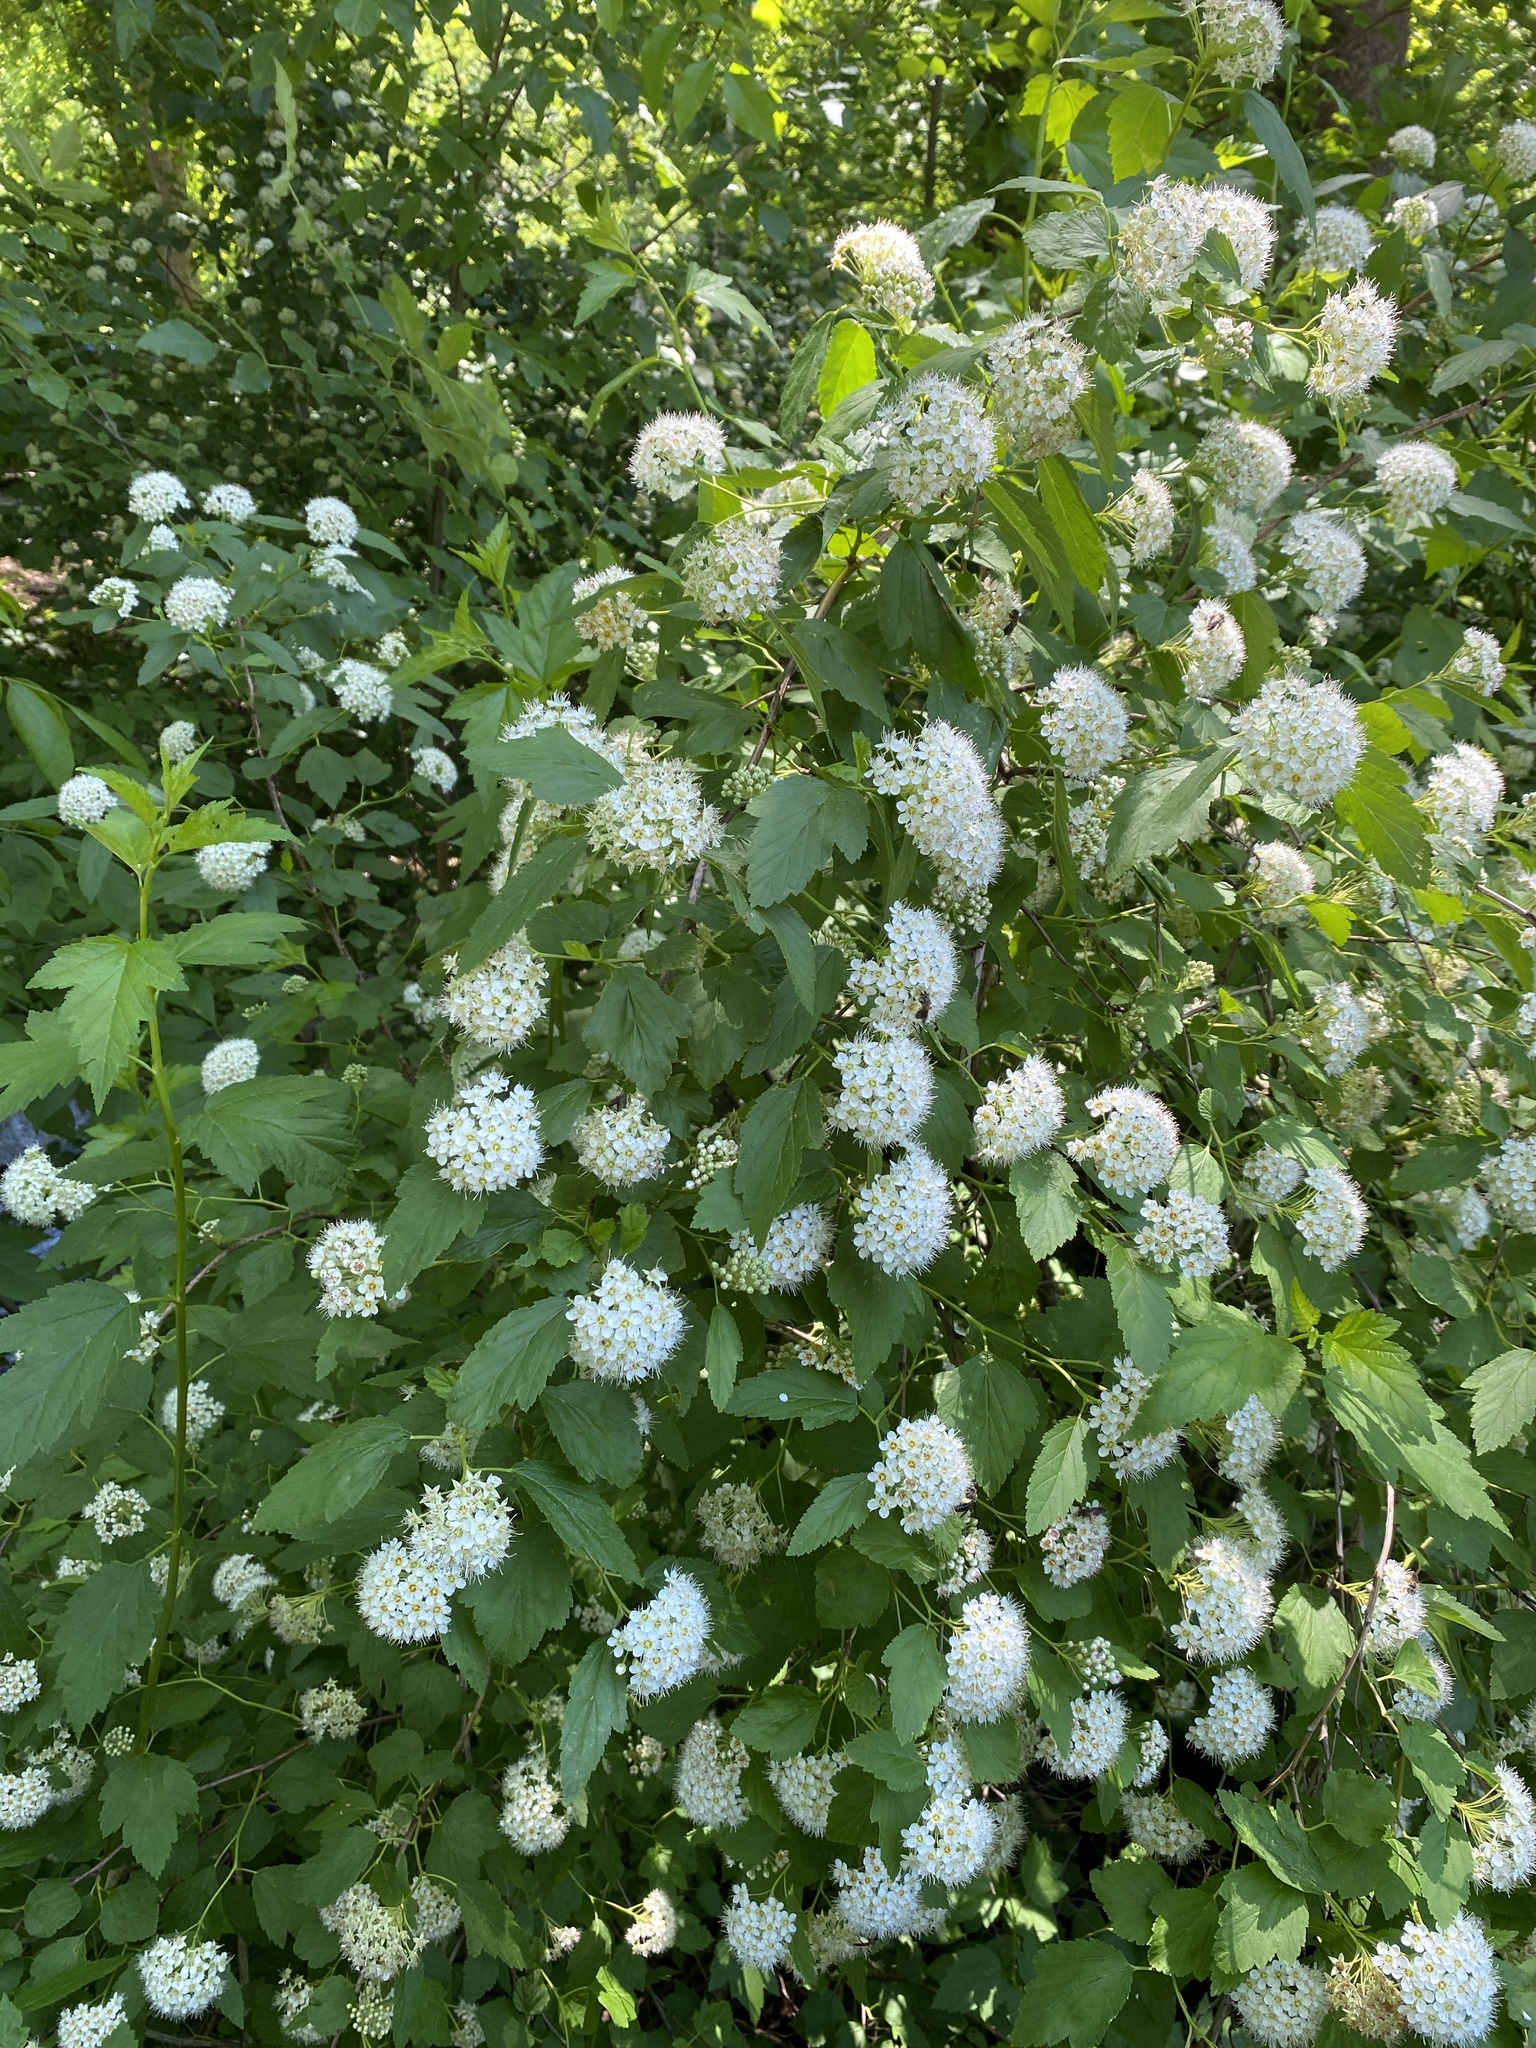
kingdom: Plantae
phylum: Tracheophyta
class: Magnoliopsida
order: Rosales
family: Rosaceae
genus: Physocarpus
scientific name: Physocarpus opulifolius
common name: Ninebark
